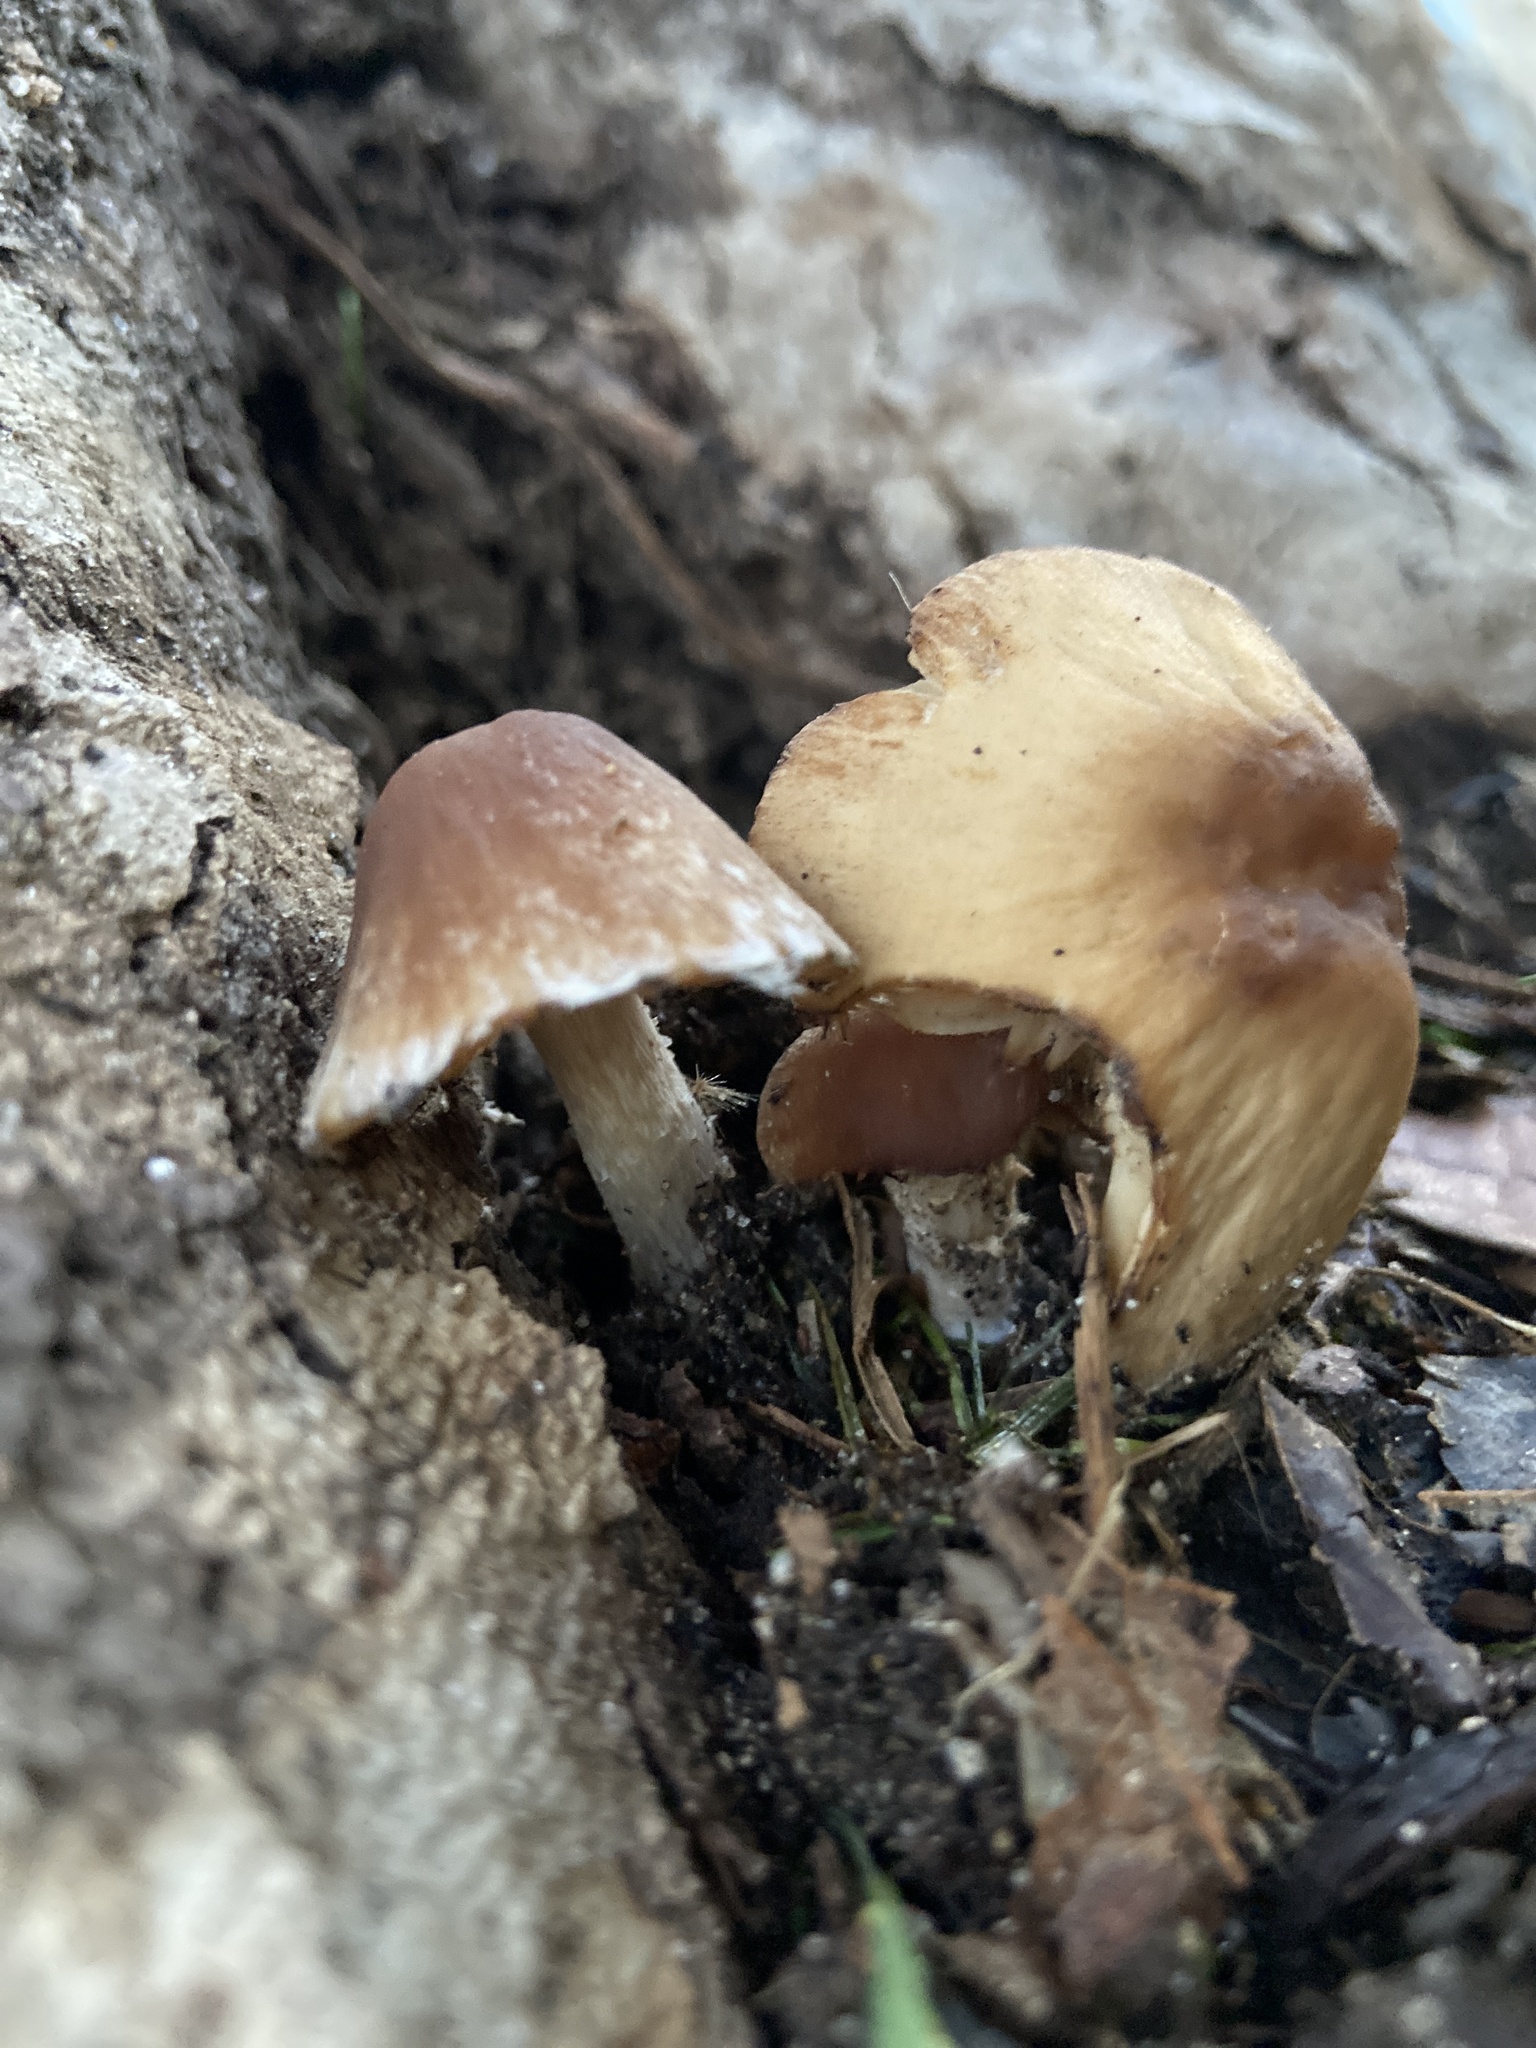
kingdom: Fungi
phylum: Basidiomycota
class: Agaricomycetes
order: Agaricales
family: Psathyrellaceae
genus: Candolleomyces
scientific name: Candolleomyces candolleanus
